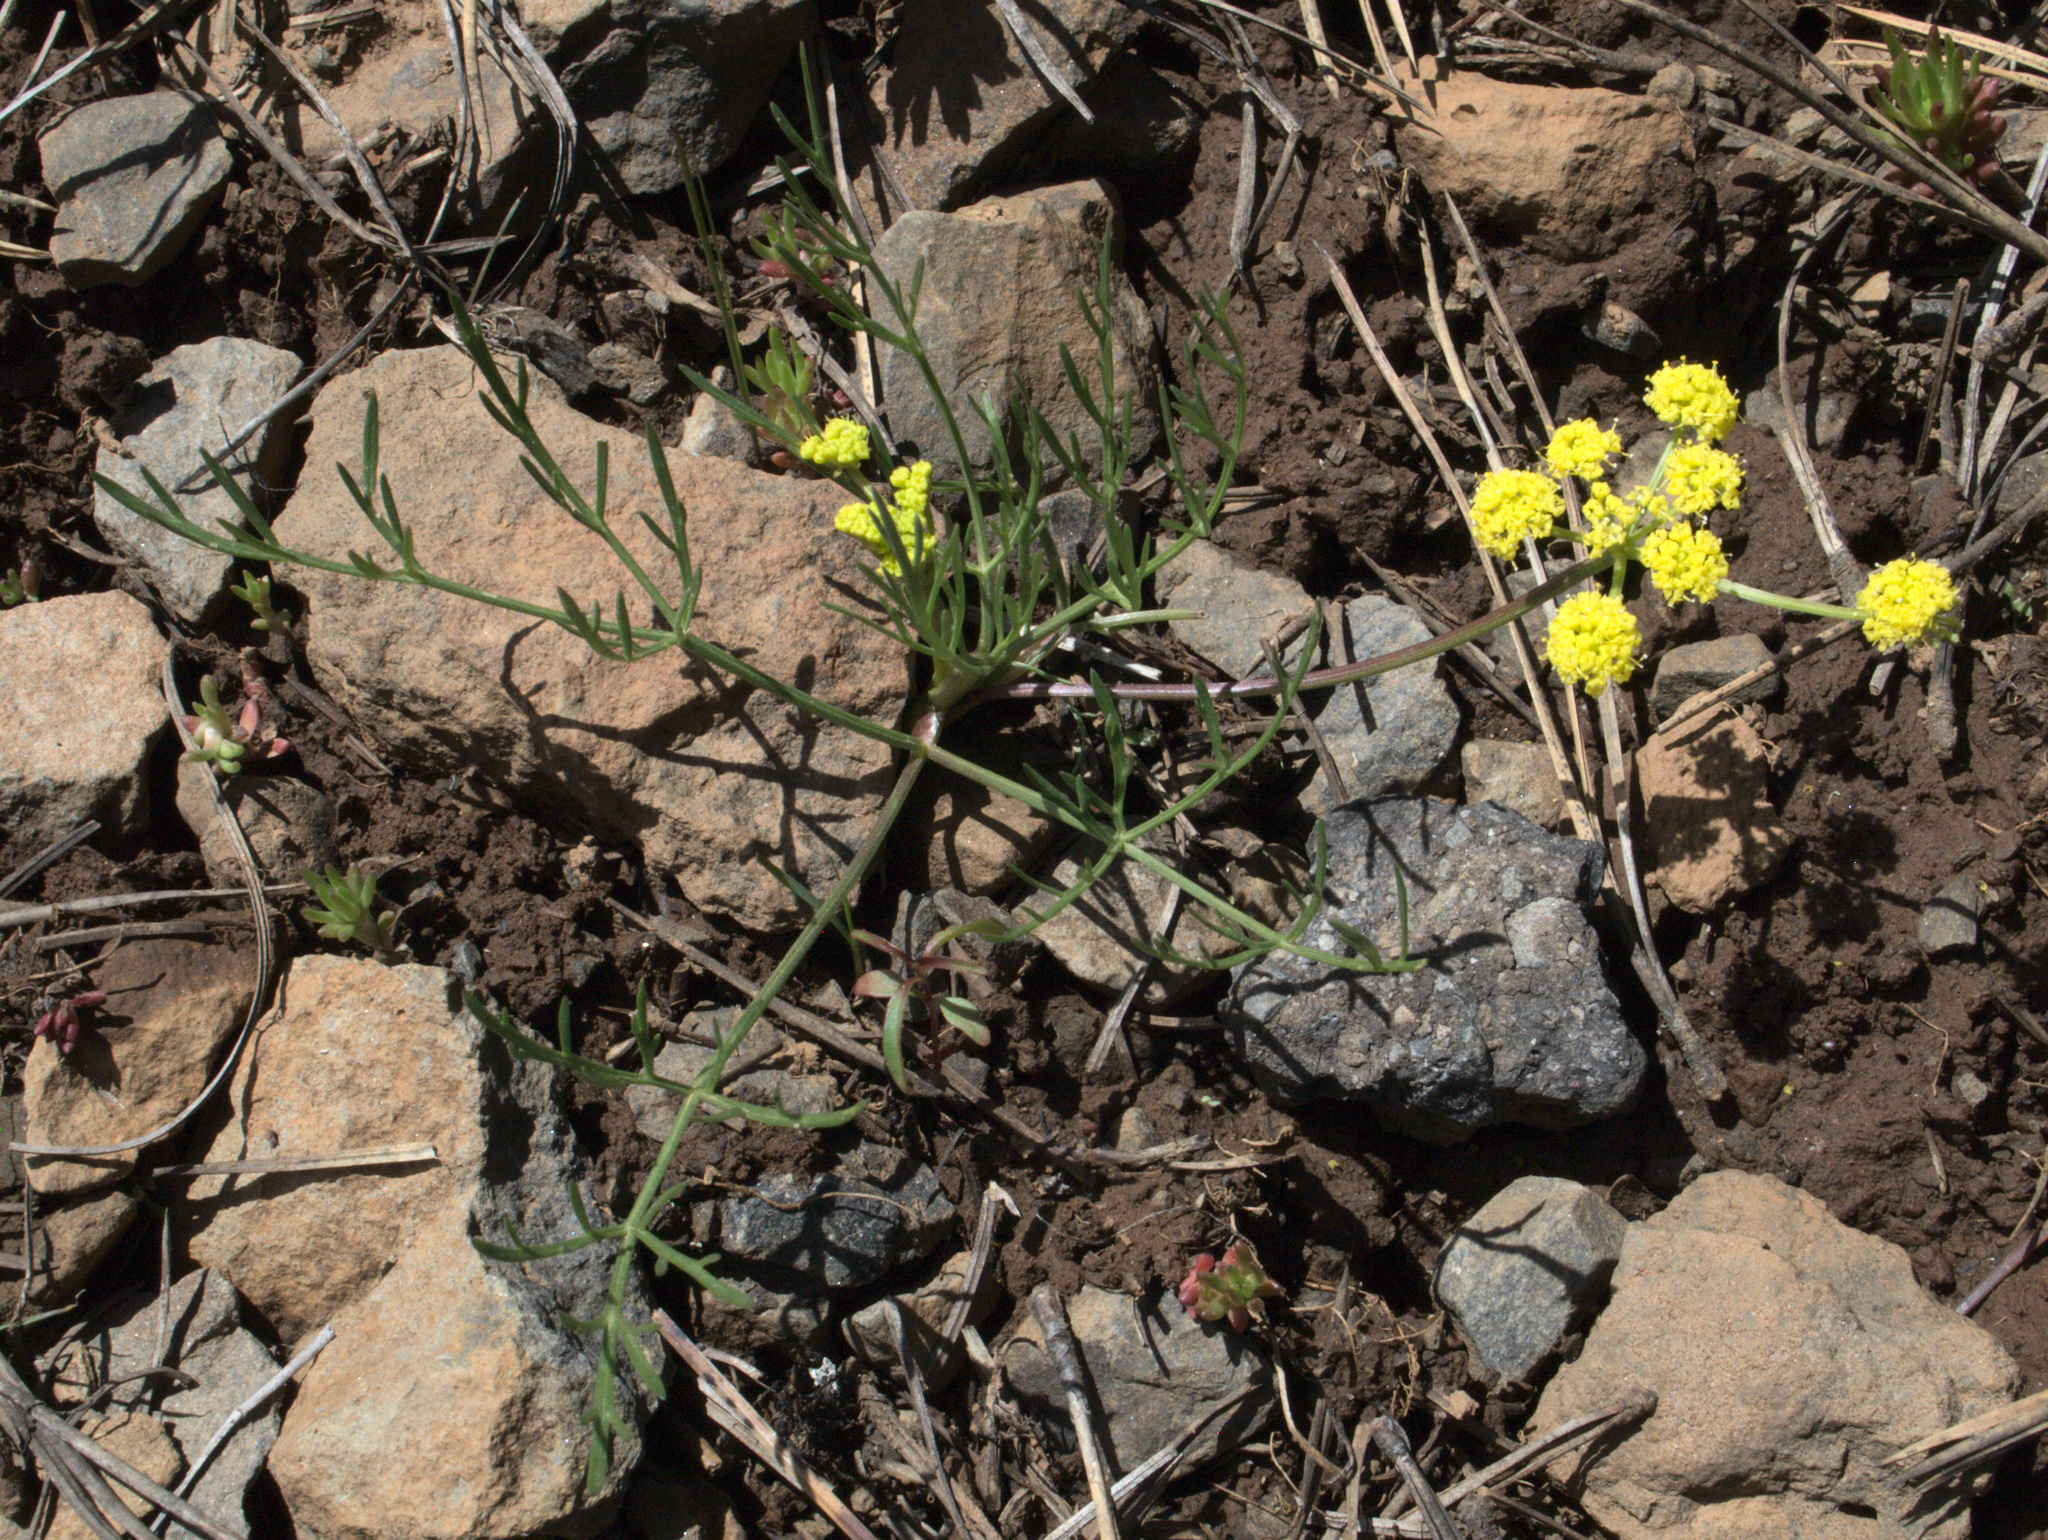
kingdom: Plantae
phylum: Tracheophyta
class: Magnoliopsida
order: Apiales
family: Apiaceae
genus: Lomatium
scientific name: Lomatium triternatum
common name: Ternate lomatium
